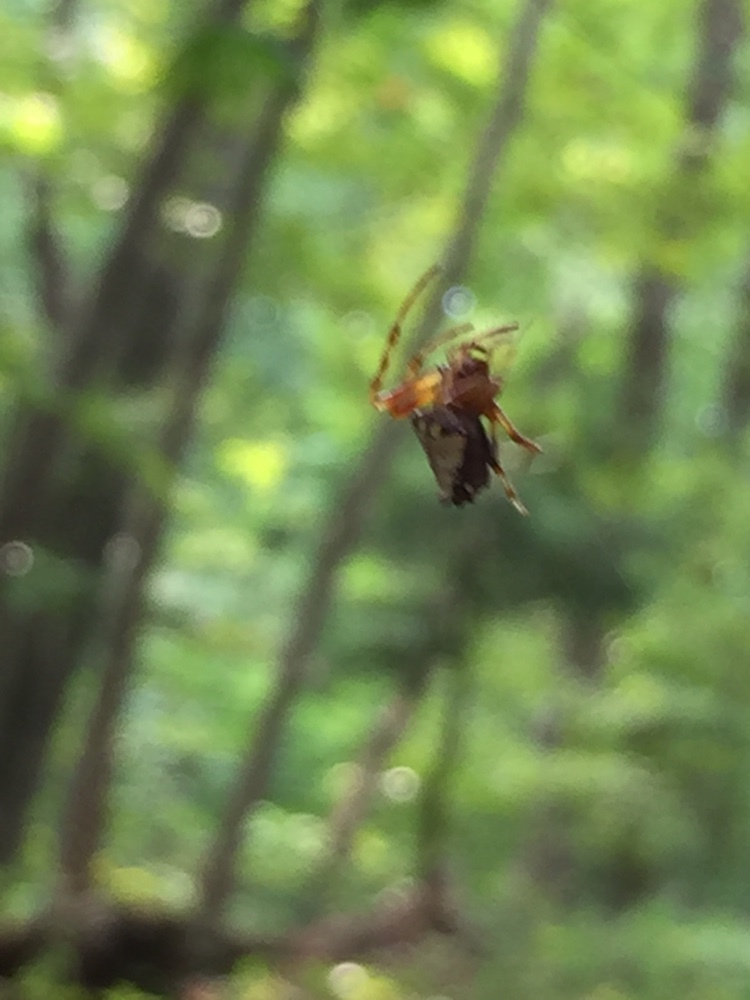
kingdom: Animalia
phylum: Arthropoda
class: Arachnida
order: Araneae
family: Araneidae
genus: Verrucosa
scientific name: Verrucosa arenata
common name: Orb weavers
